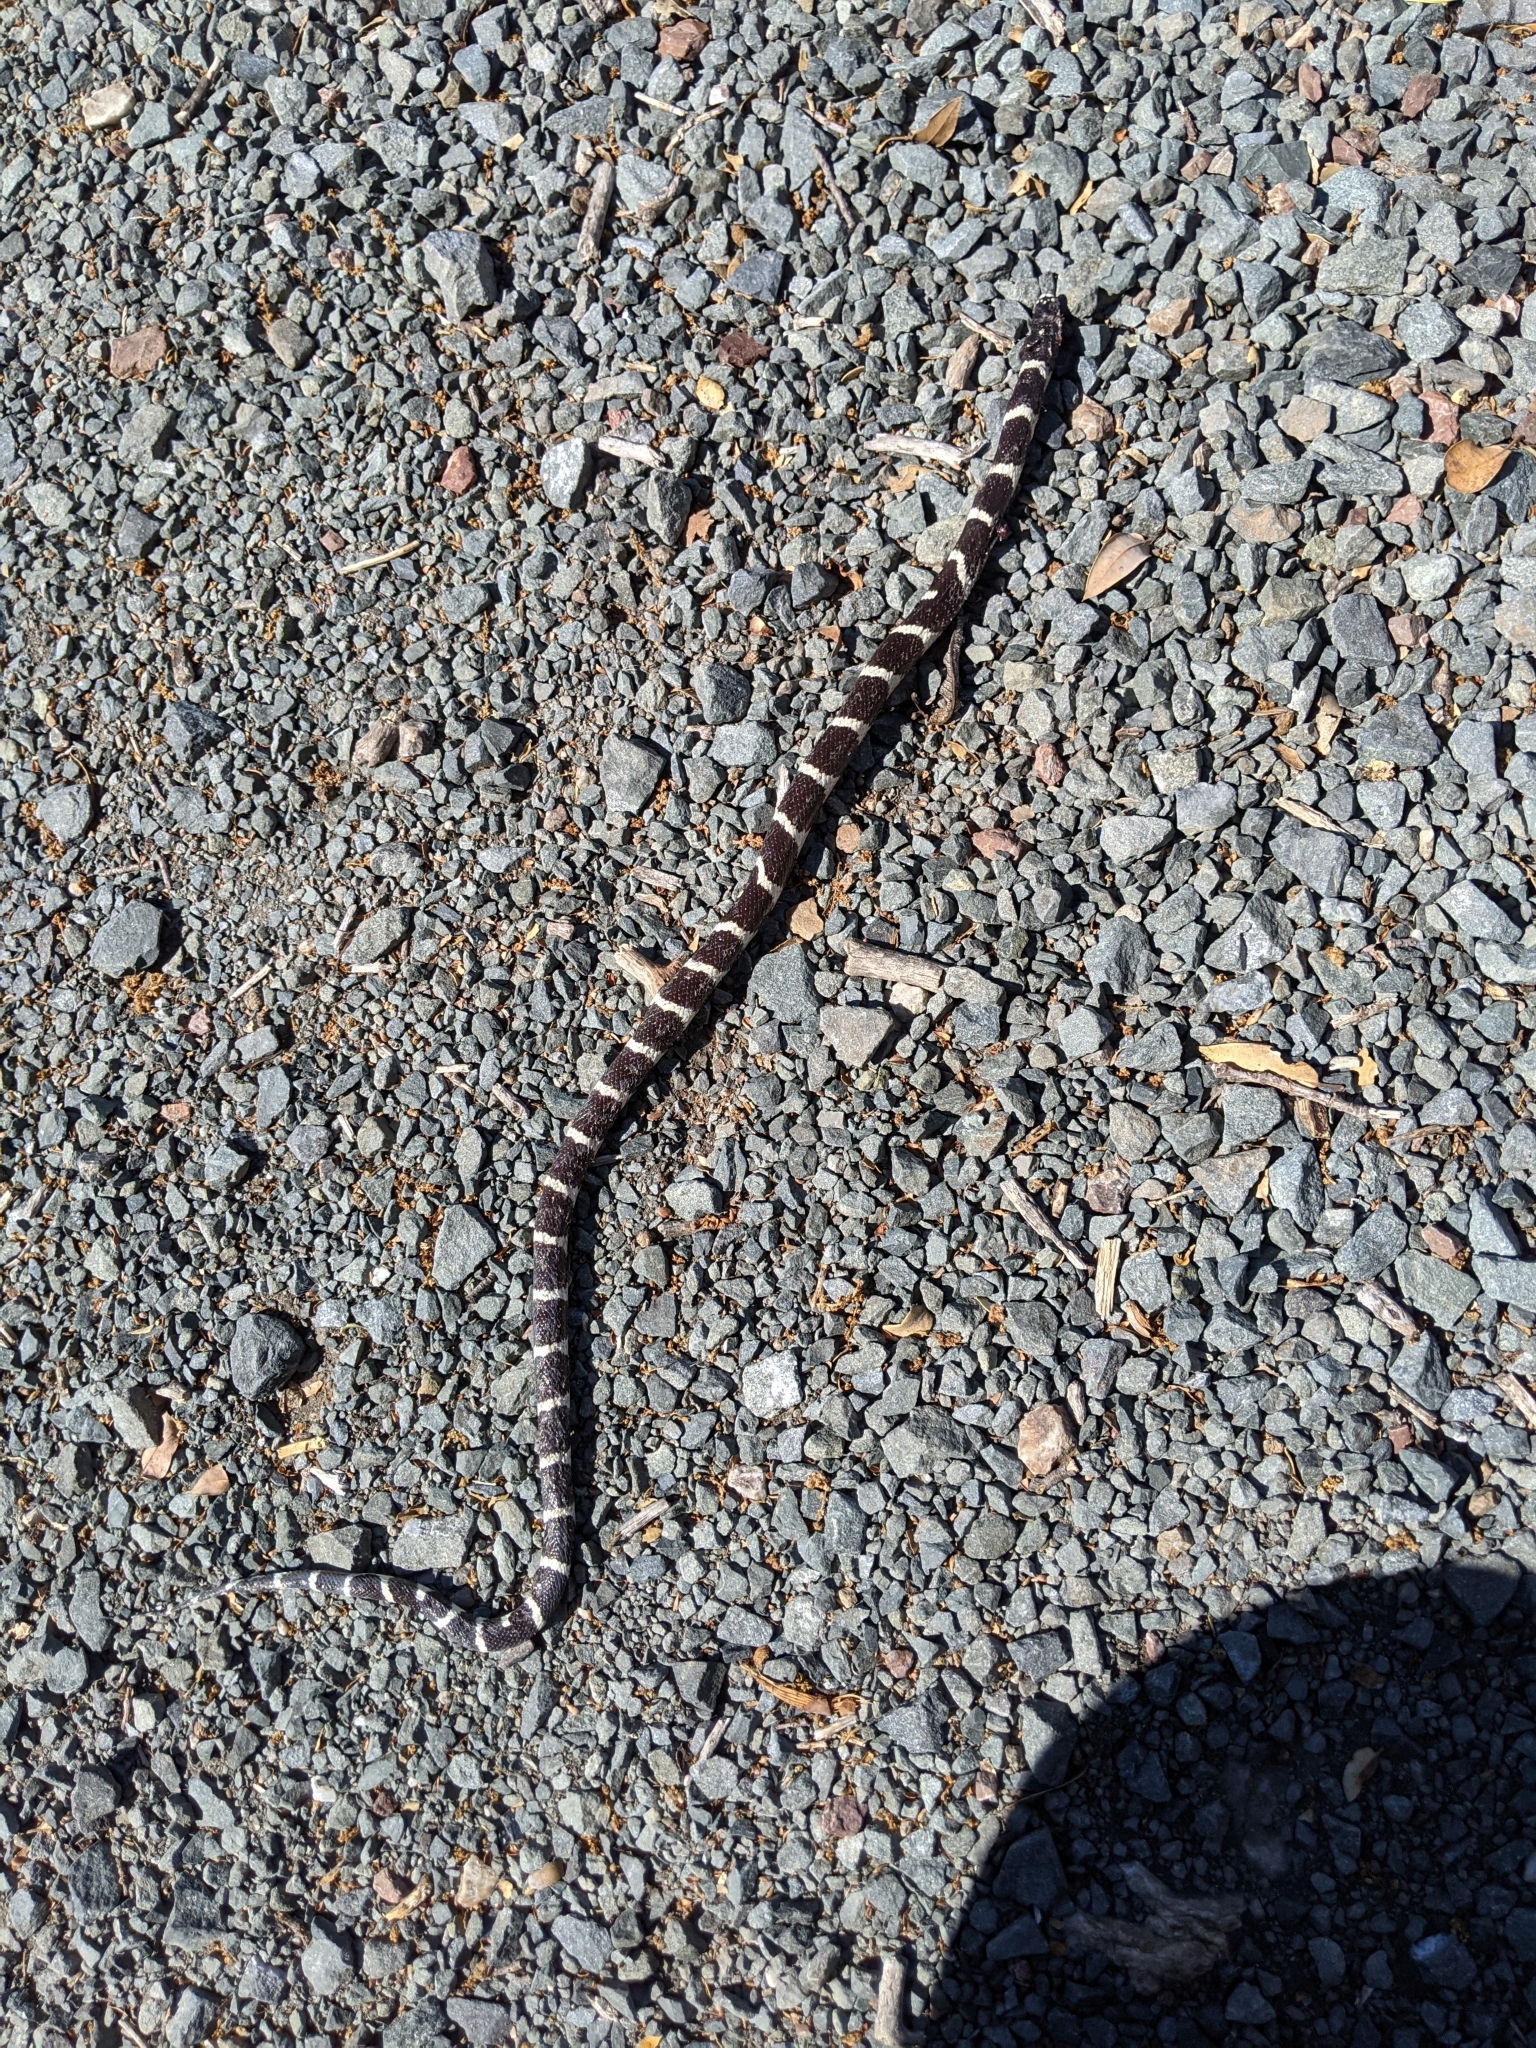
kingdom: Animalia
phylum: Chordata
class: Squamata
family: Colubridae
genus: Lampropeltis
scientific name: Lampropeltis californiae
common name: California kingsnake
